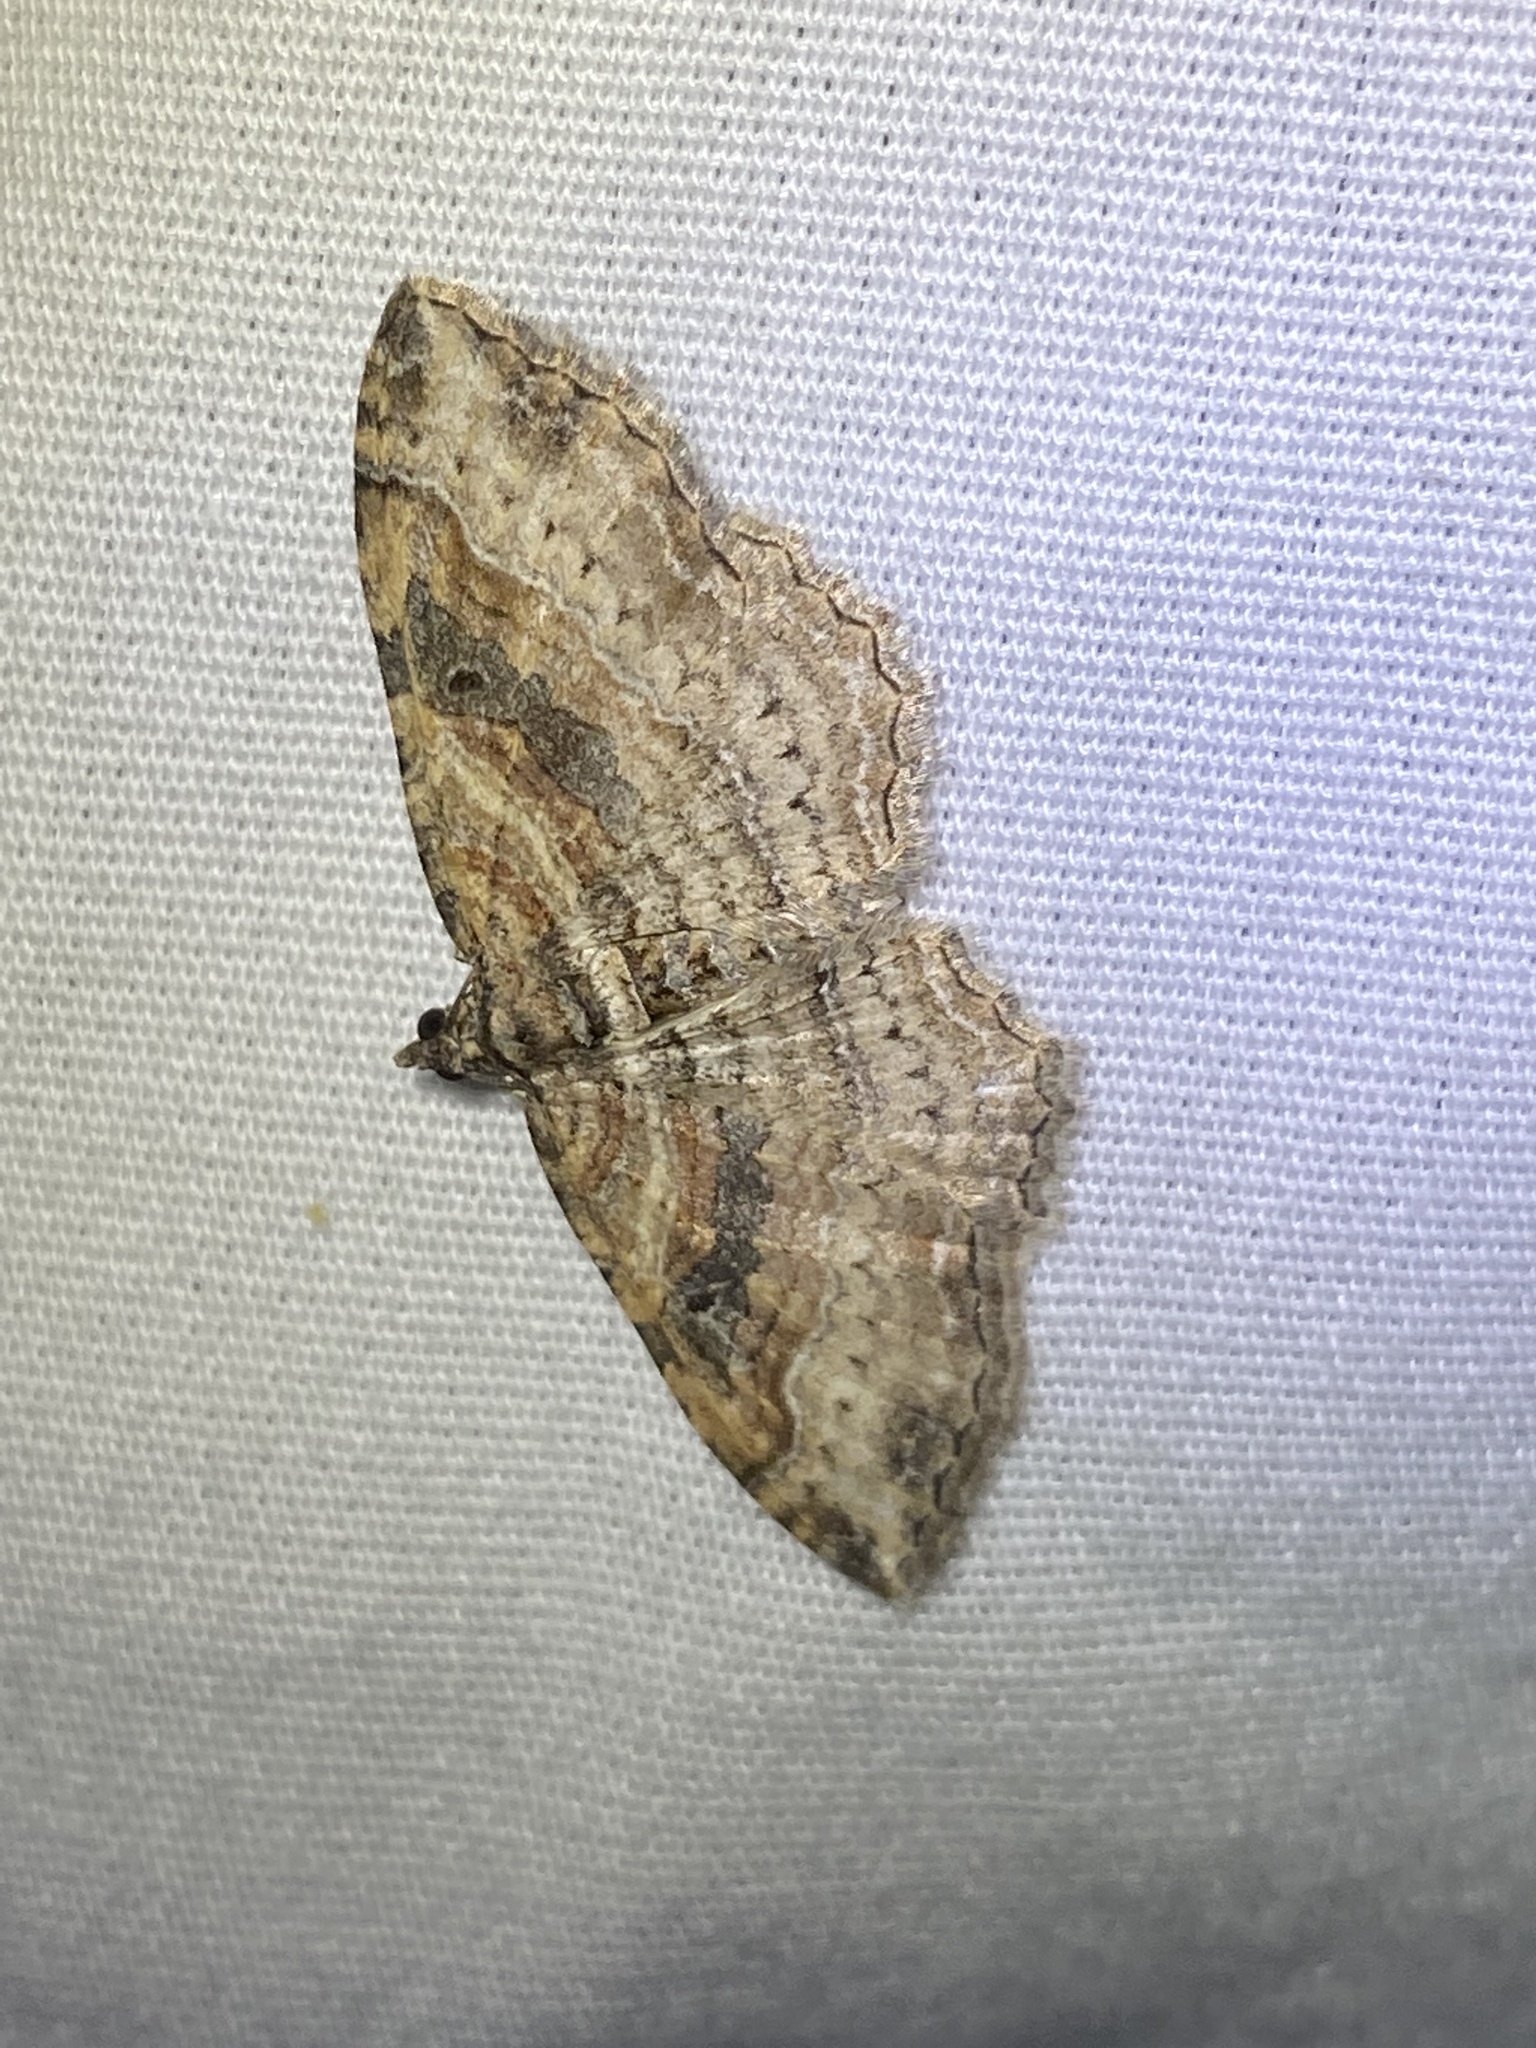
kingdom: Animalia
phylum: Arthropoda
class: Insecta
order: Lepidoptera
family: Geometridae
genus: Costaconvexa
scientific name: Costaconvexa centrostrigaria
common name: Bent-line carpet
